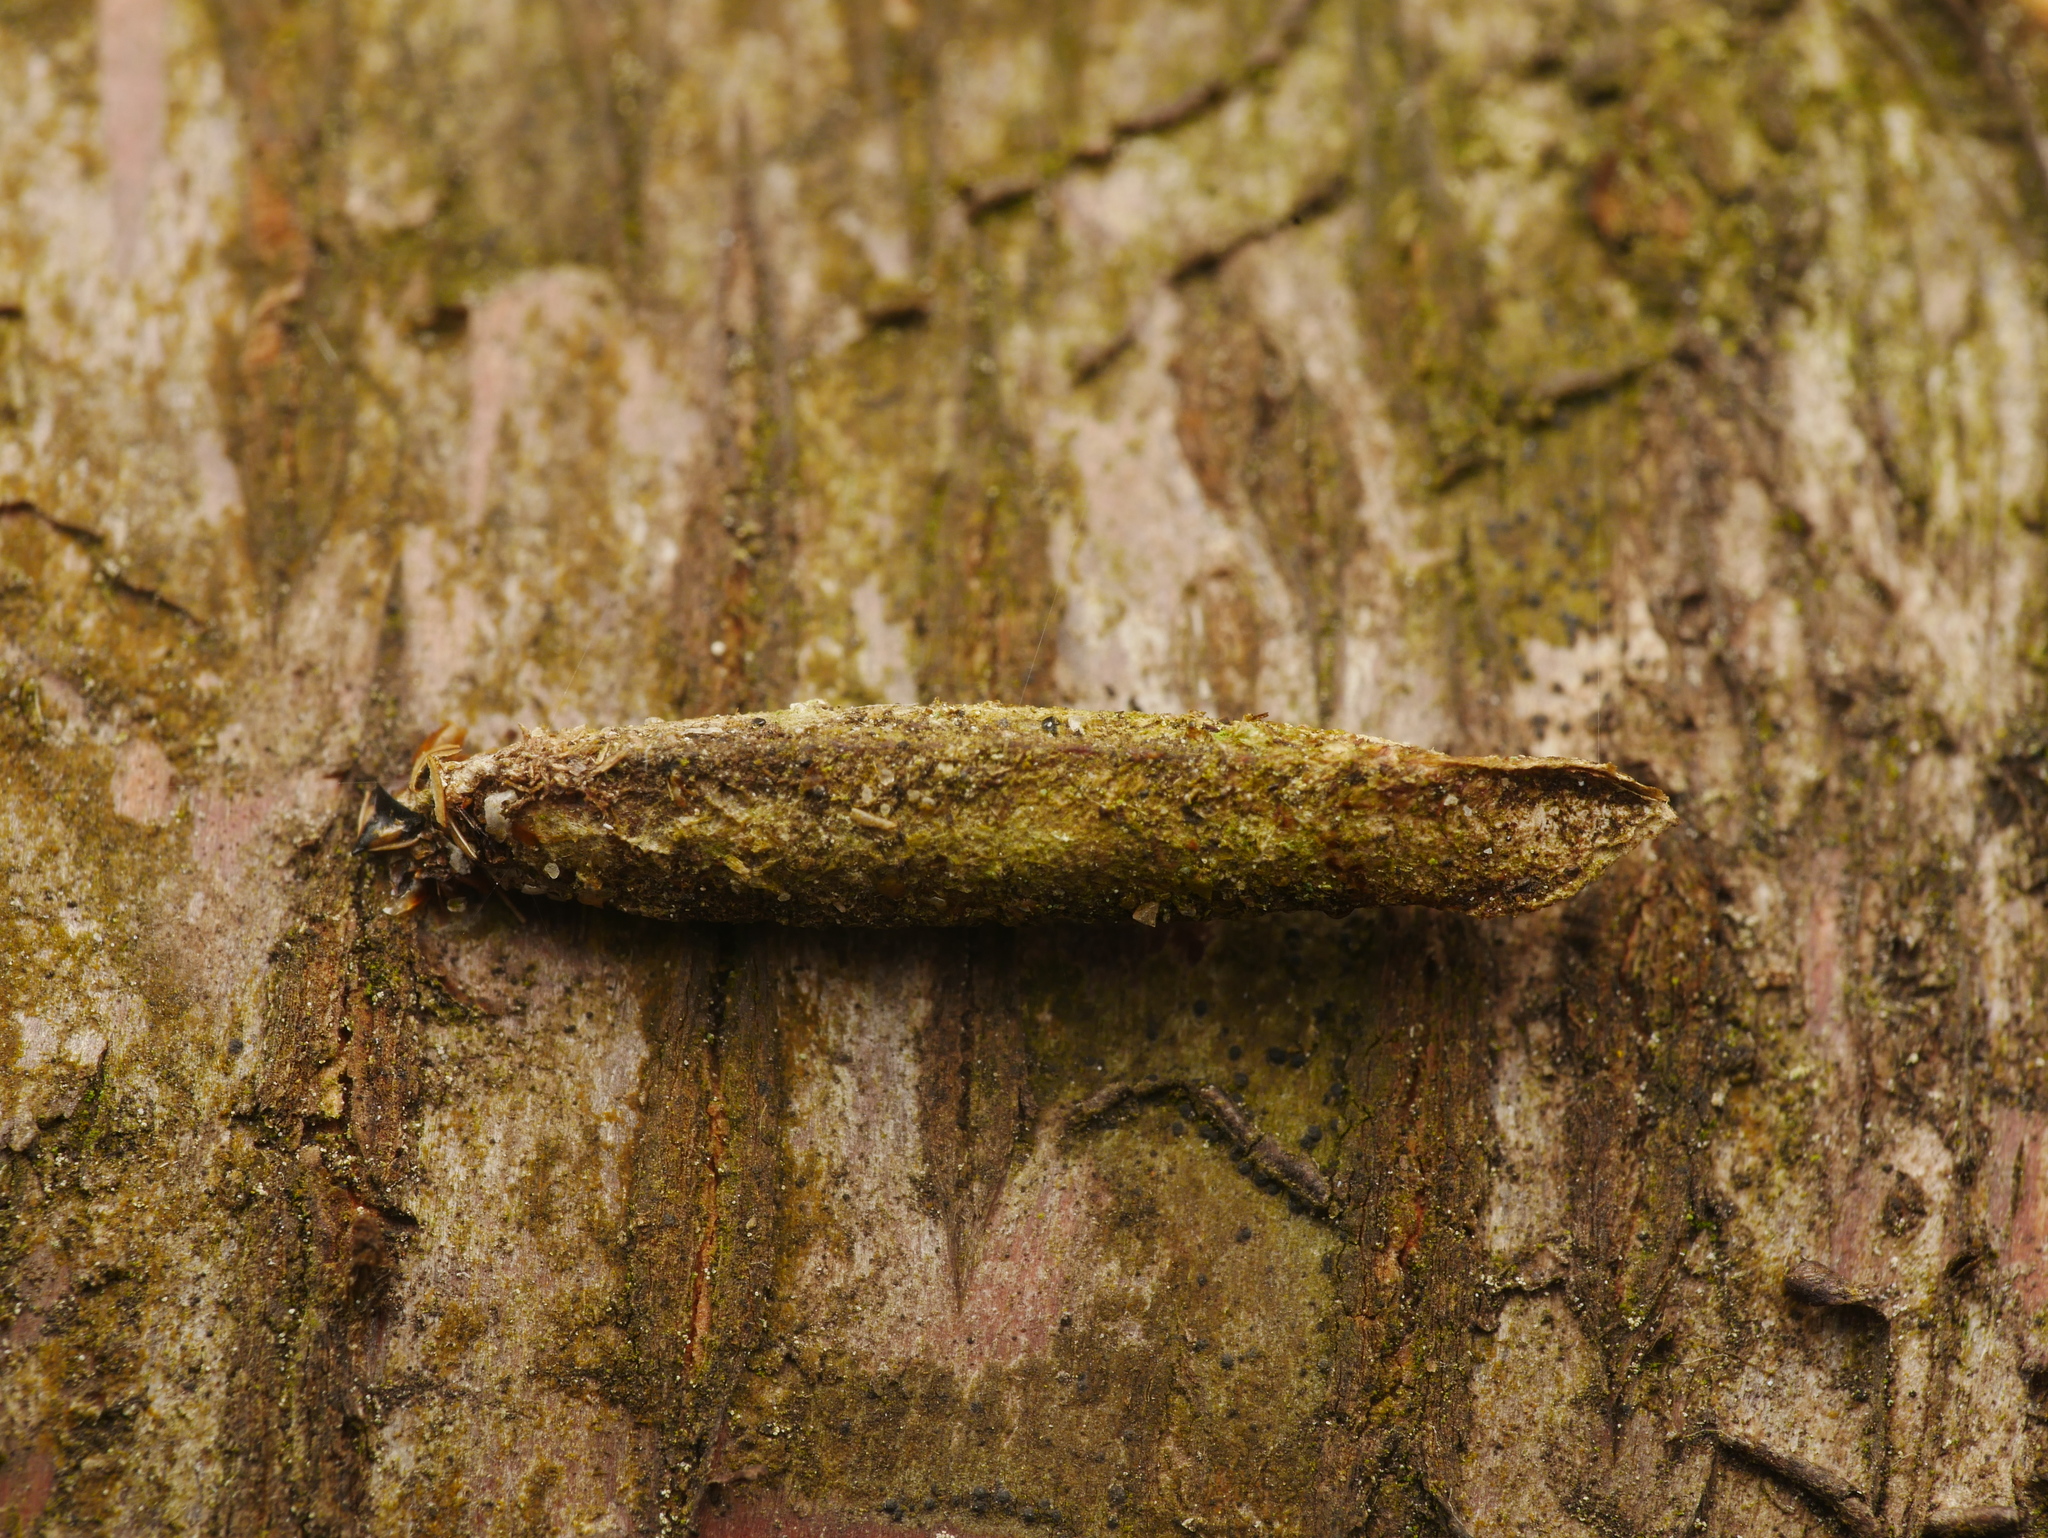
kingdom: Animalia
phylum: Arthropoda
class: Insecta
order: Lepidoptera
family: Psychidae
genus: Taleporia
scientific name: Taleporia tubulosa
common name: Brown smoke
